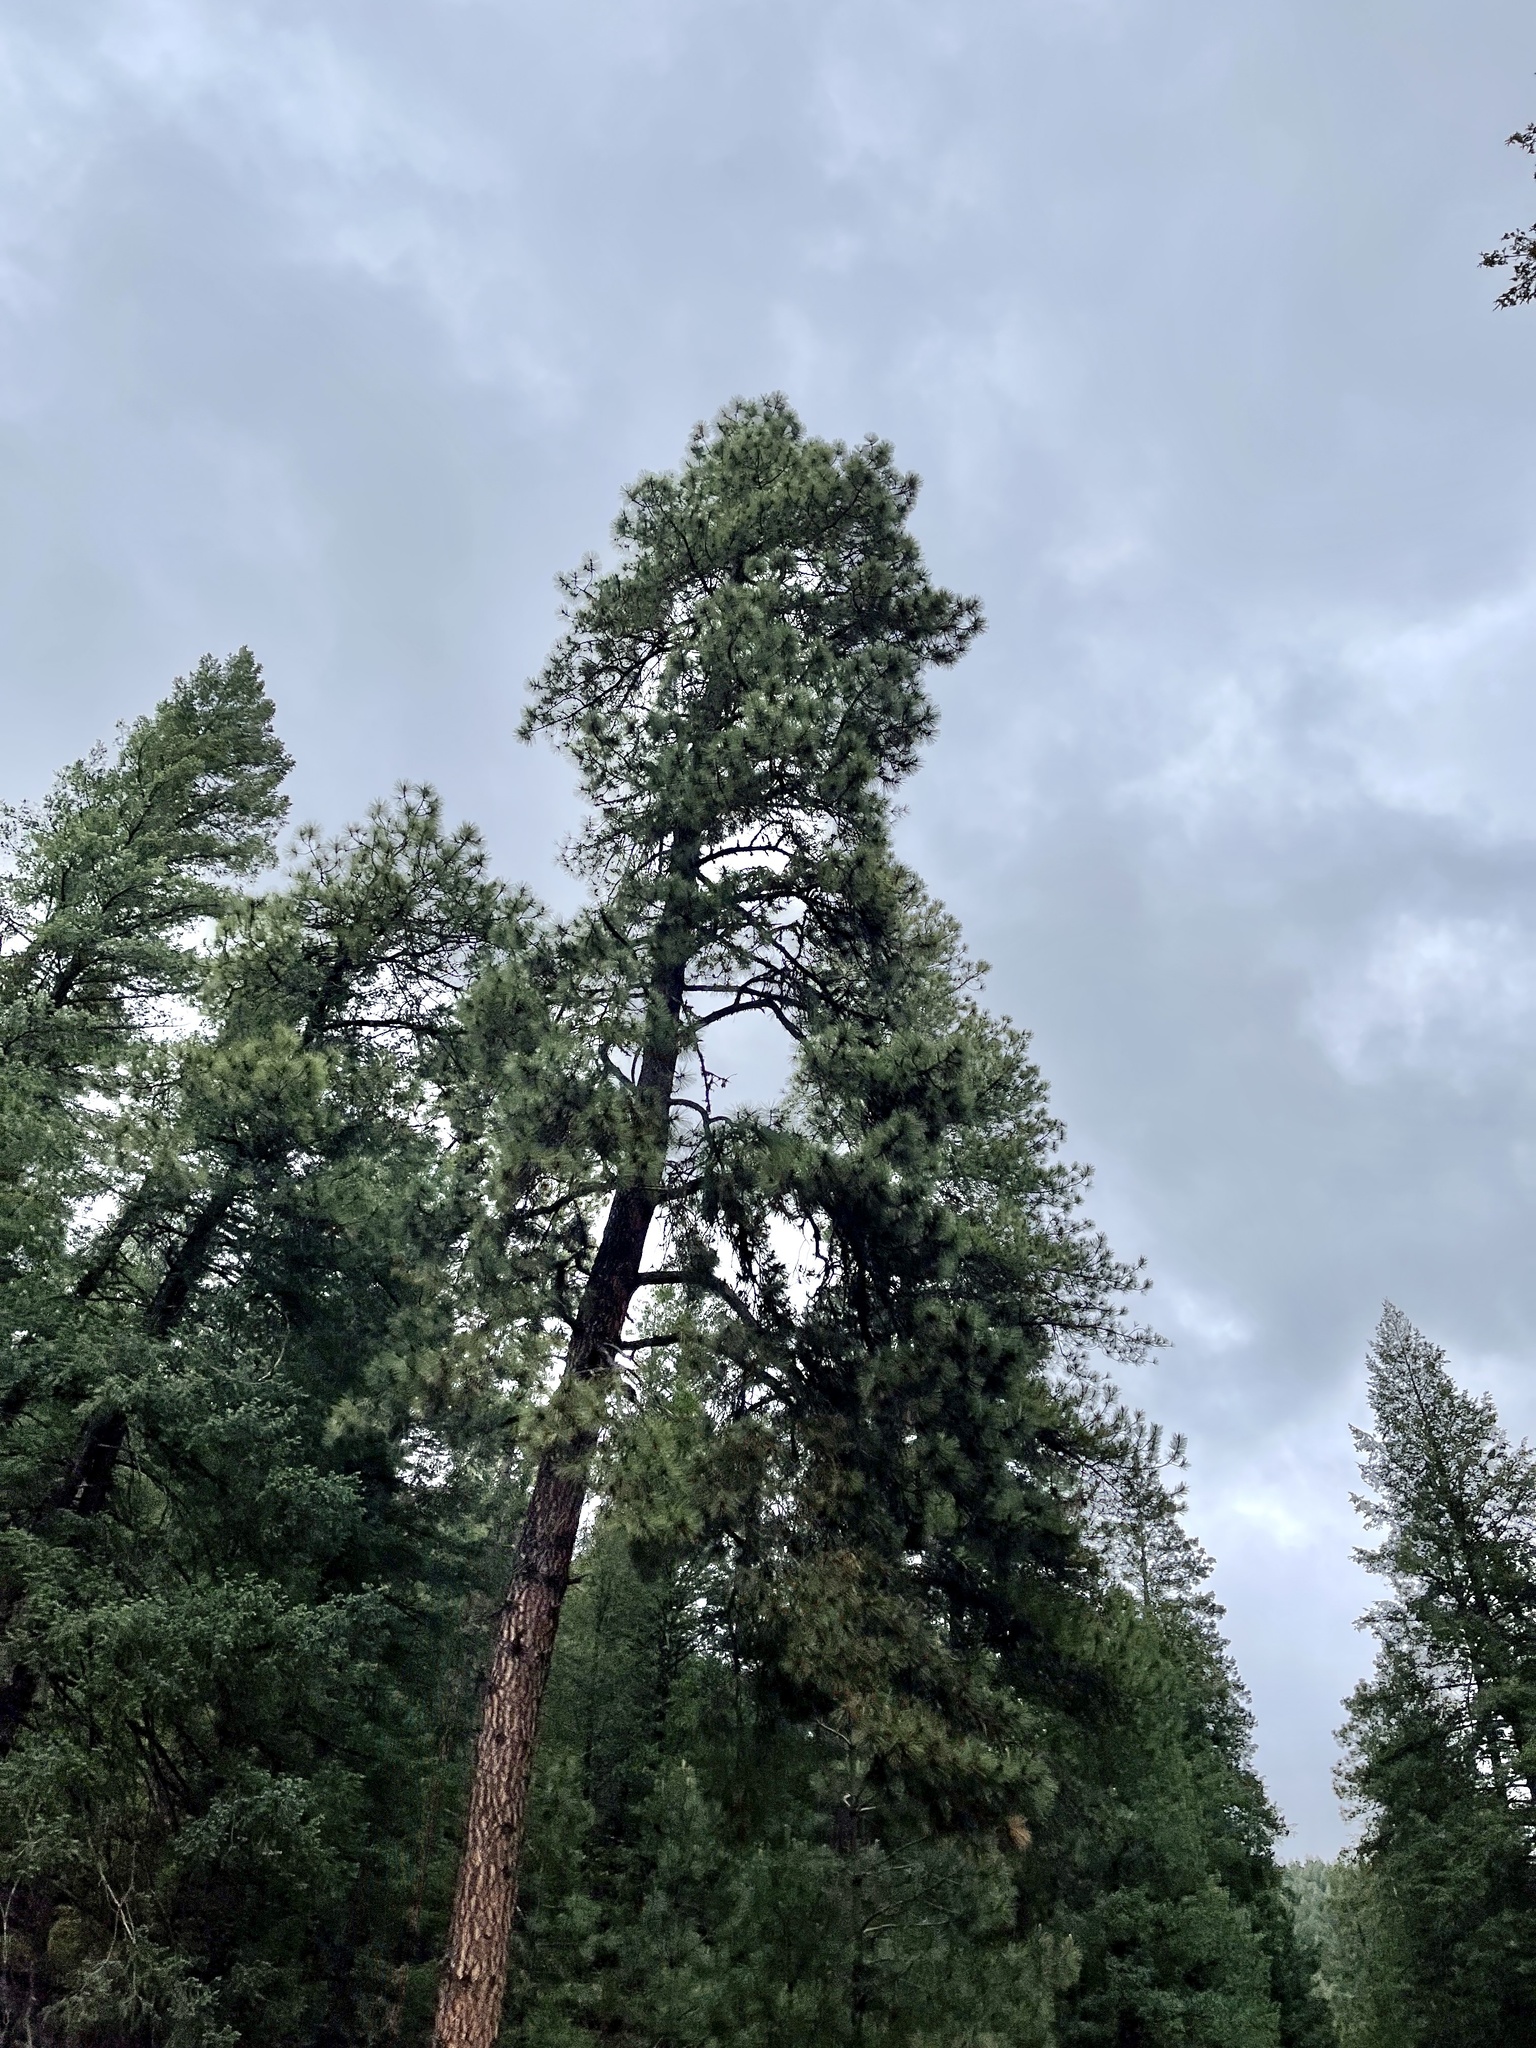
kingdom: Plantae
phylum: Tracheophyta
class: Pinopsida
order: Pinales
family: Pinaceae
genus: Pinus
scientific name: Pinus ponderosa
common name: Western yellow-pine
